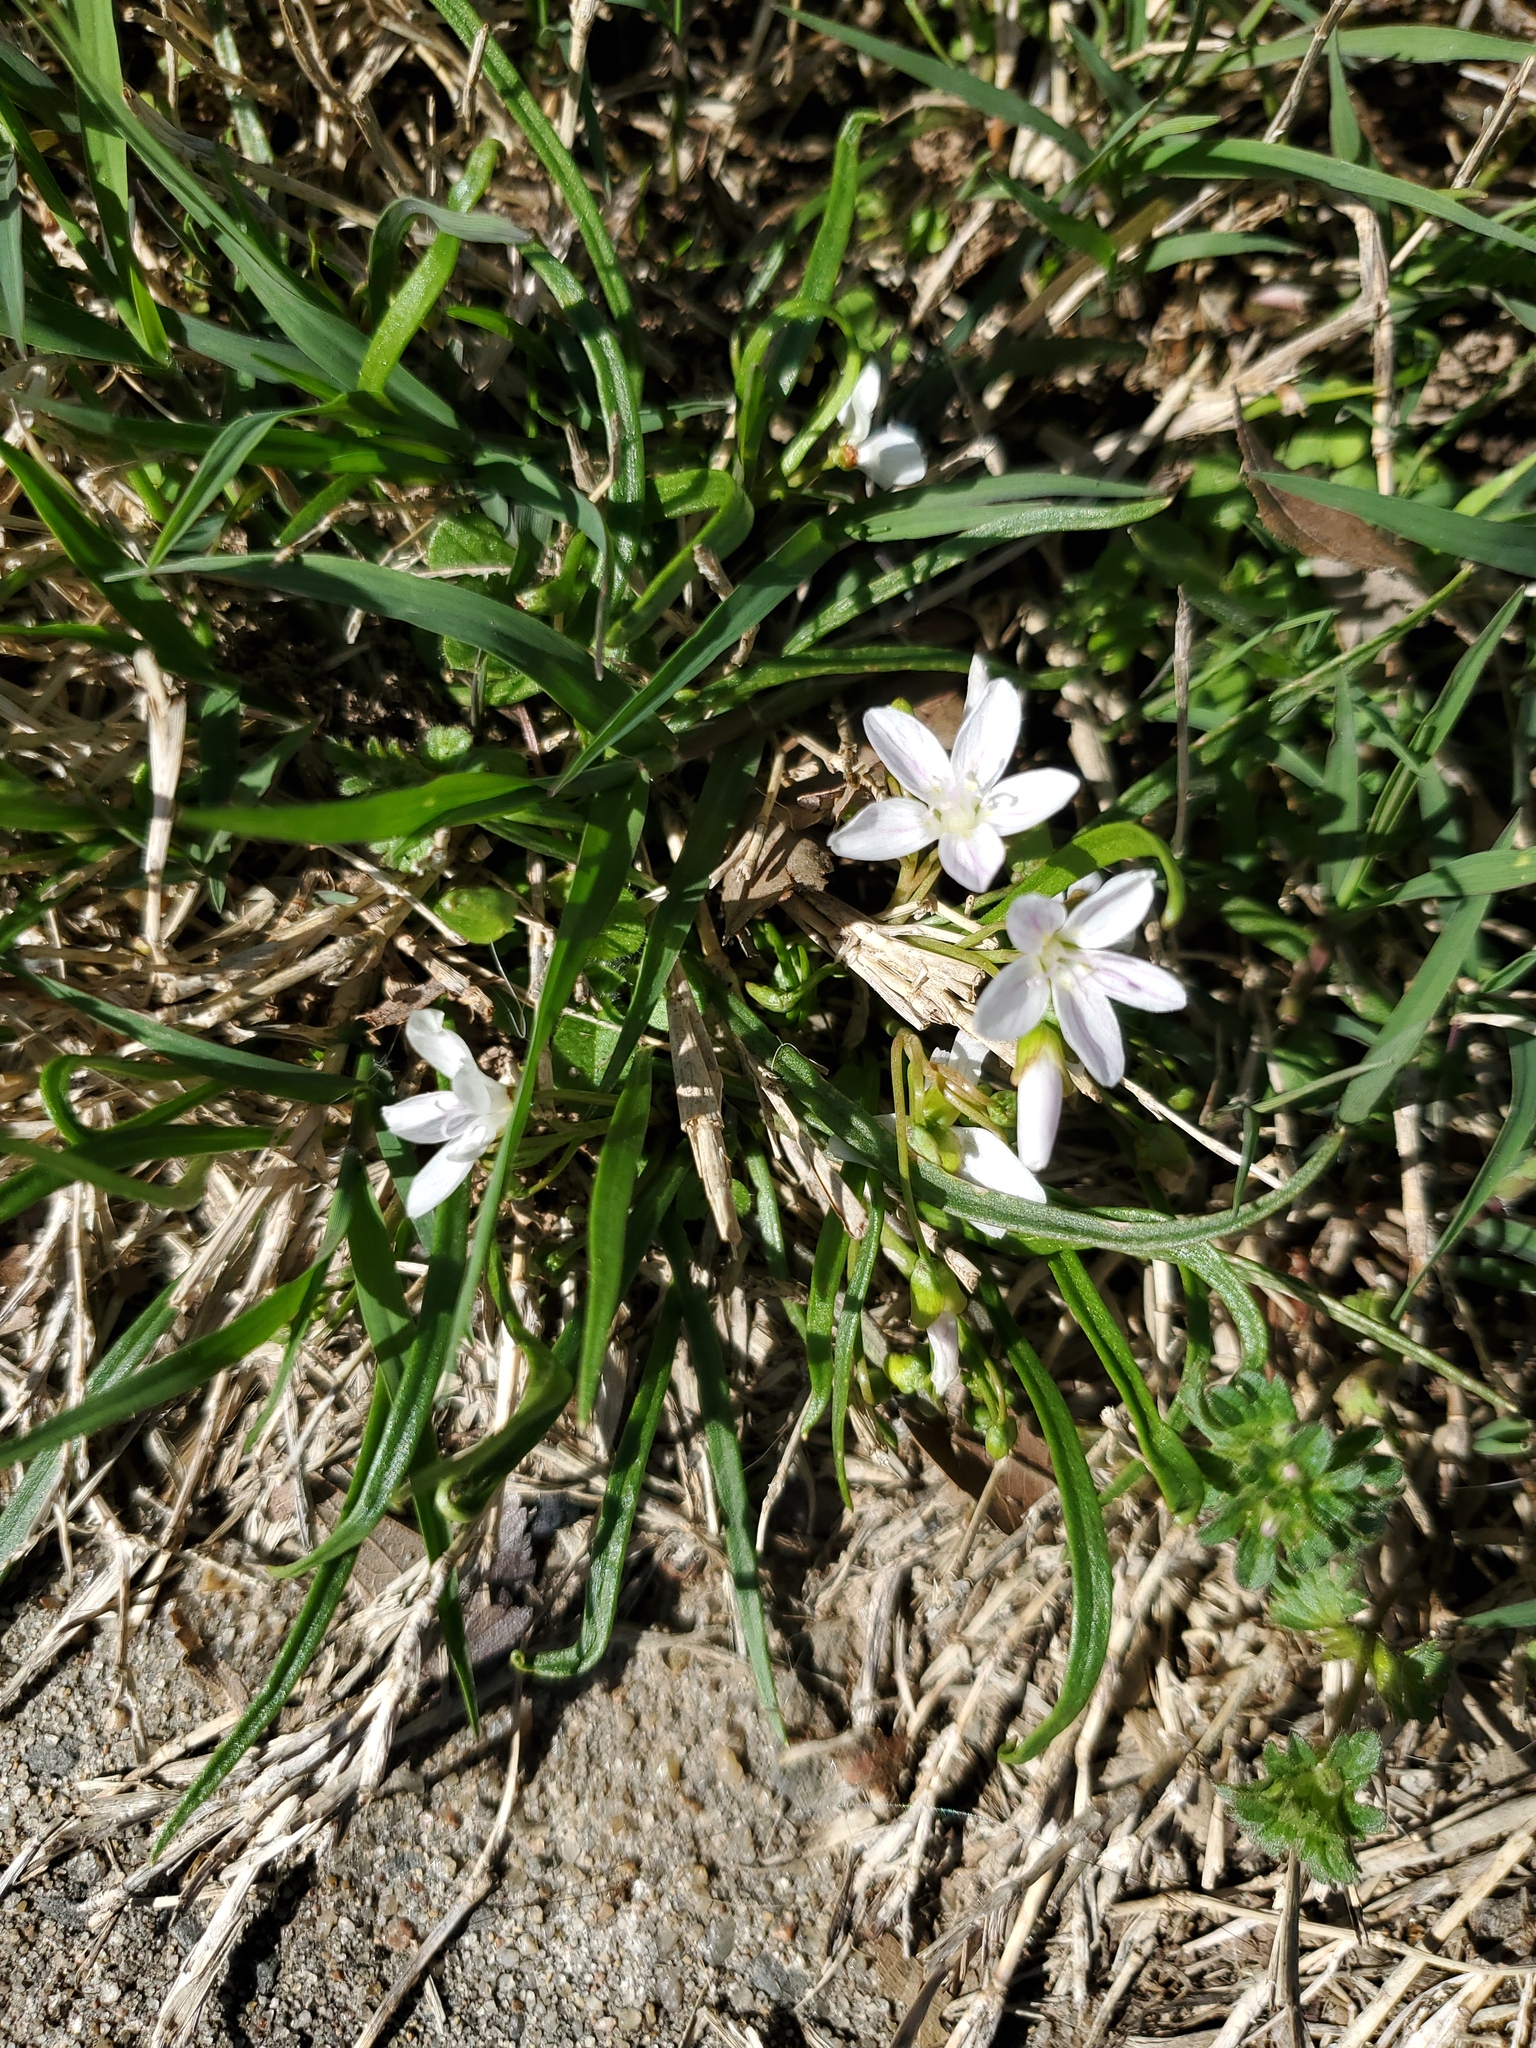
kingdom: Plantae
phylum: Tracheophyta
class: Magnoliopsida
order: Caryophyllales
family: Montiaceae
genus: Claytonia
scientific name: Claytonia virginica
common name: Virginia springbeauty
